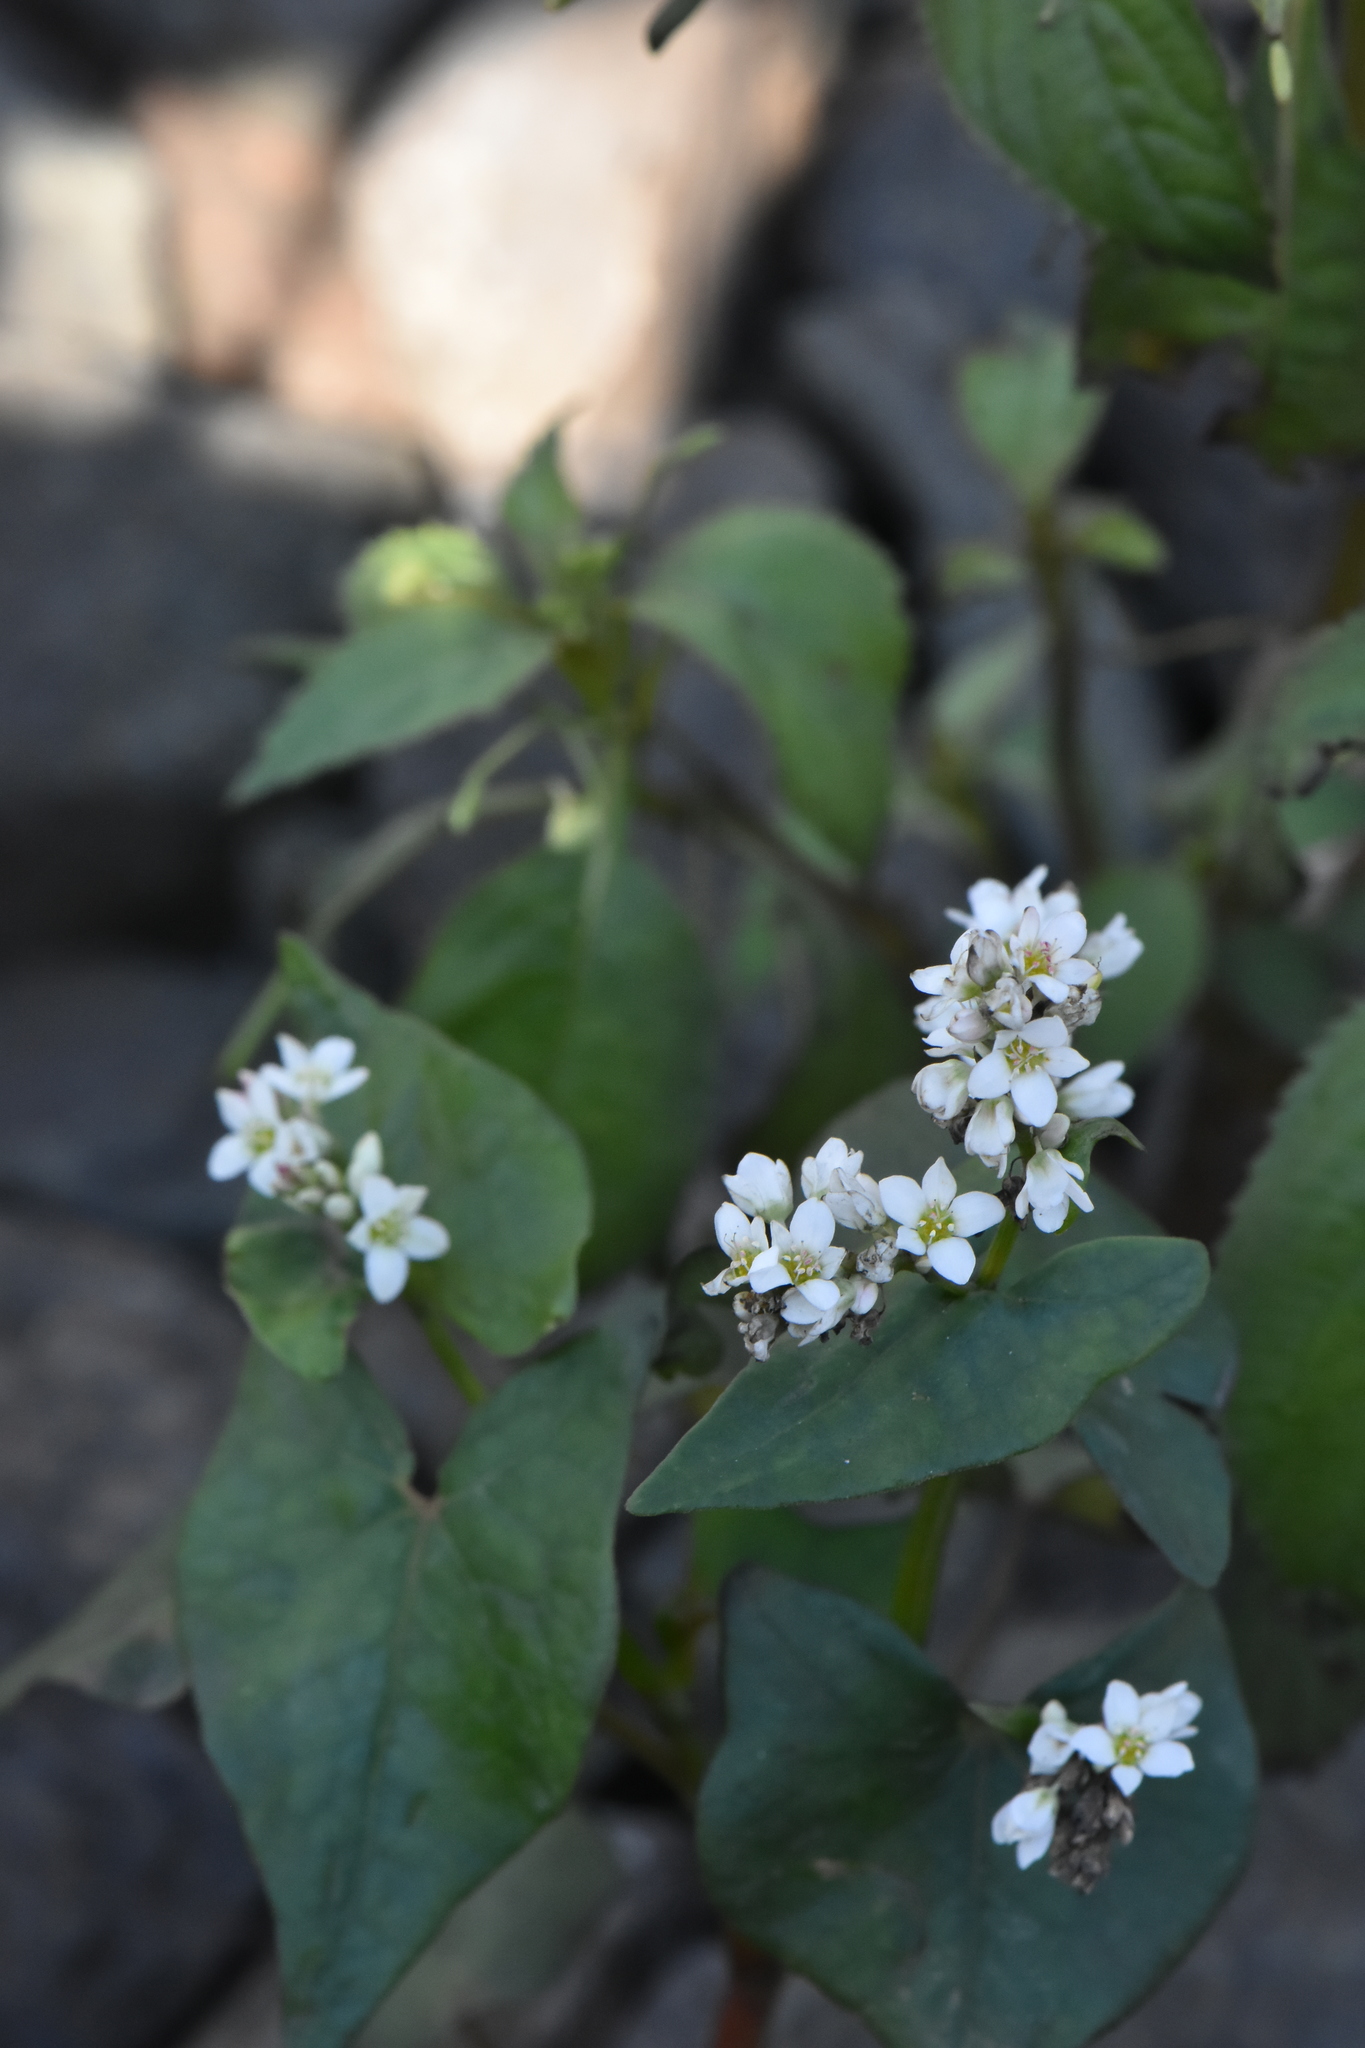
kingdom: Plantae
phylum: Tracheophyta
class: Magnoliopsida
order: Caryophyllales
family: Polygonaceae
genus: Fagopyrum
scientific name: Fagopyrum esculentum
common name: Buckwheat
